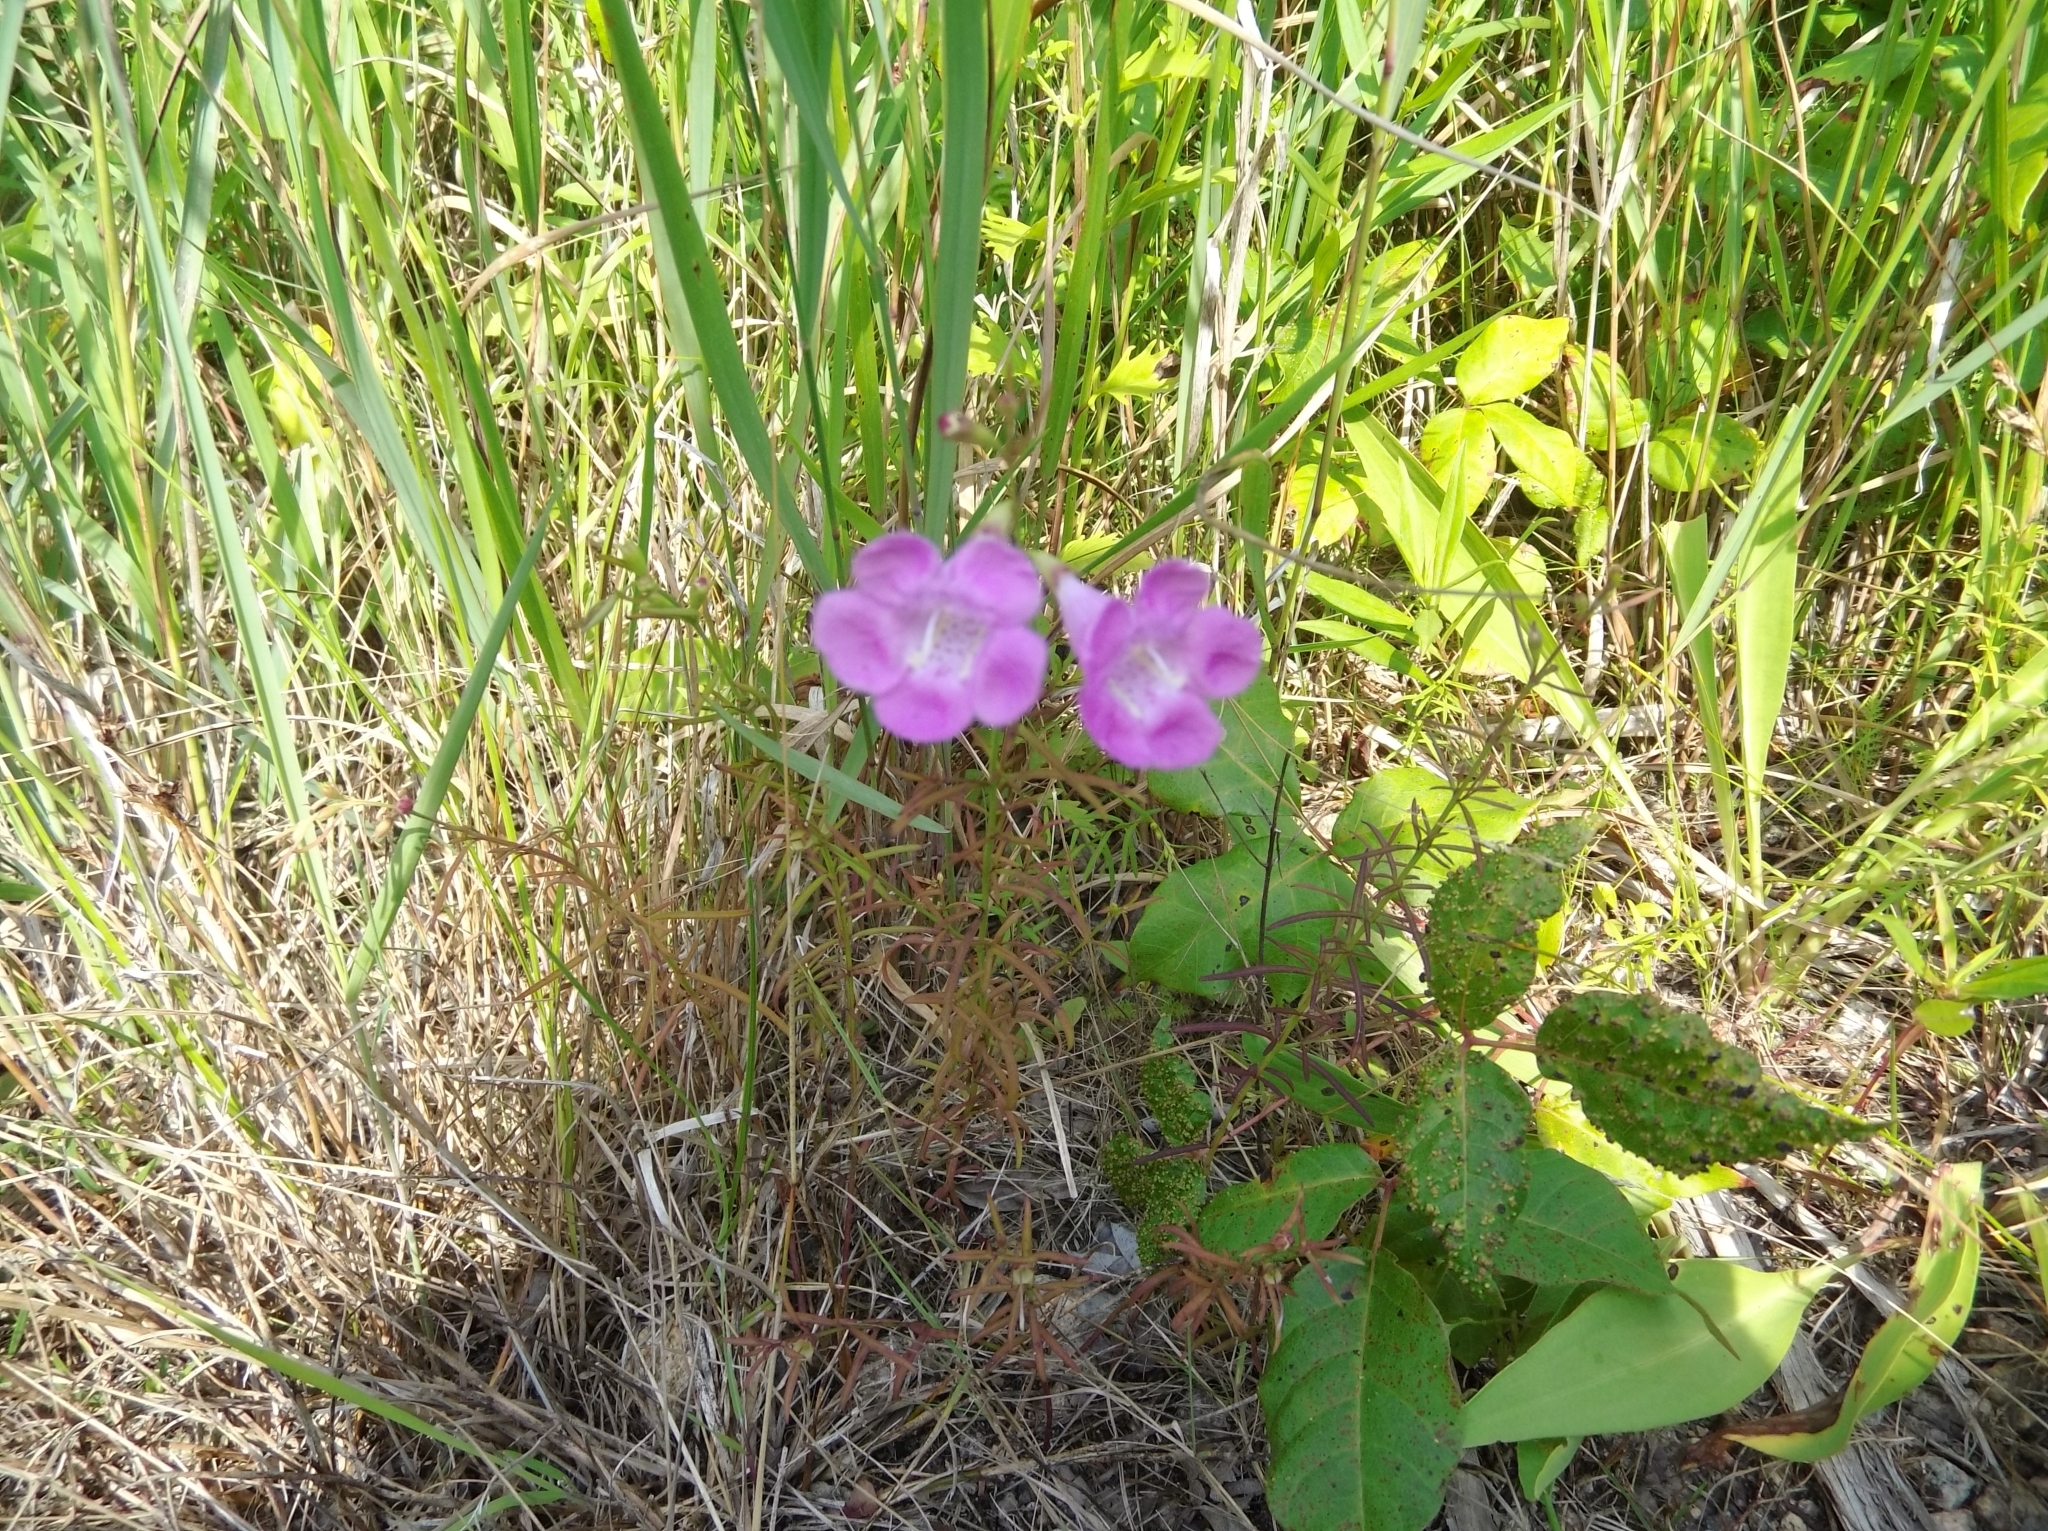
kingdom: Plantae
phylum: Tracheophyta
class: Magnoliopsida
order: Lamiales
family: Orobanchaceae
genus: Agalinis
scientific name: Agalinis purpurea
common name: Purple false foxglove
